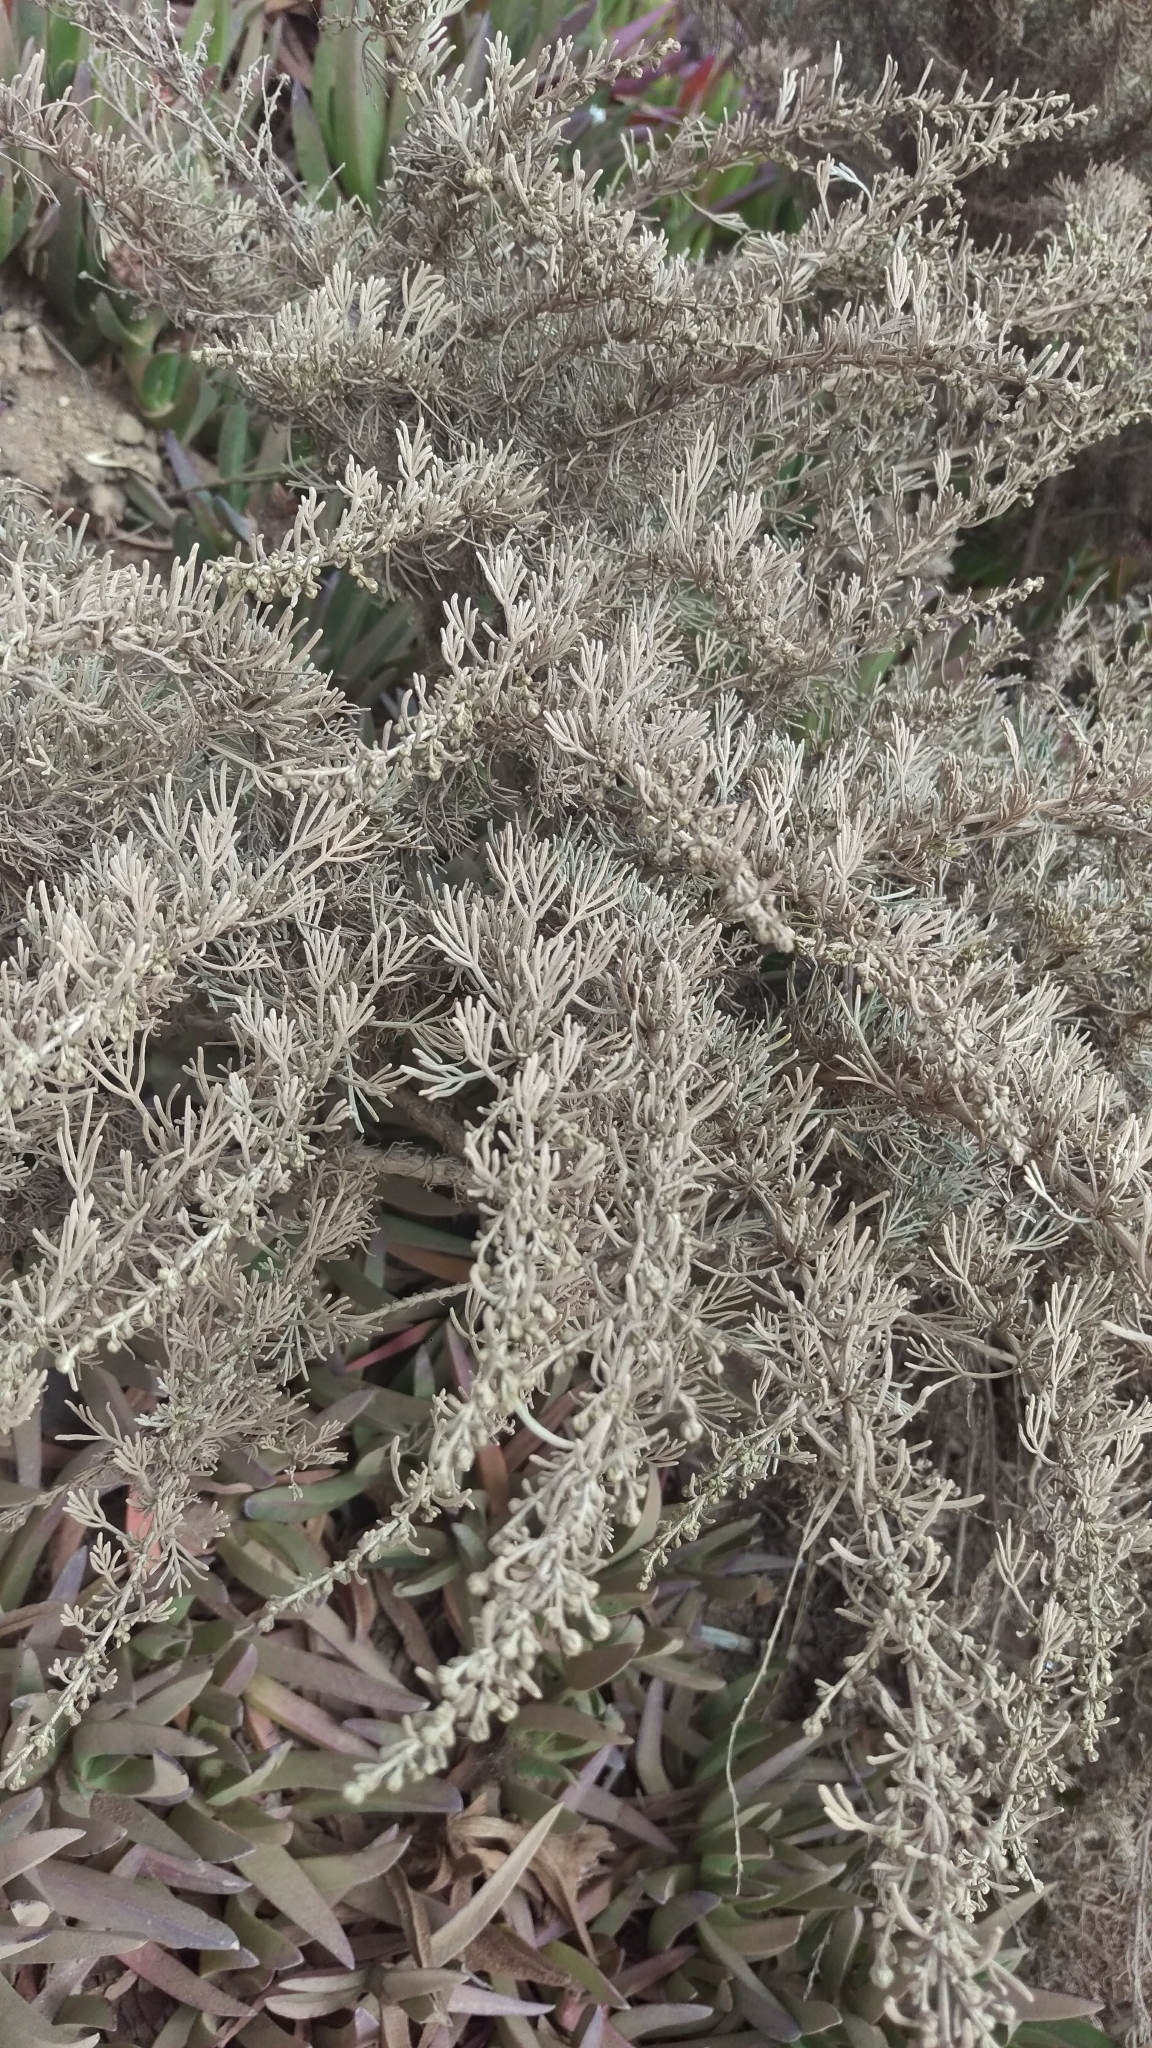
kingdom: Plantae
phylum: Tracheophyta
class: Magnoliopsida
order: Asterales
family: Asteraceae
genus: Artemisia
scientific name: Artemisia californica
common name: California sagebrush
